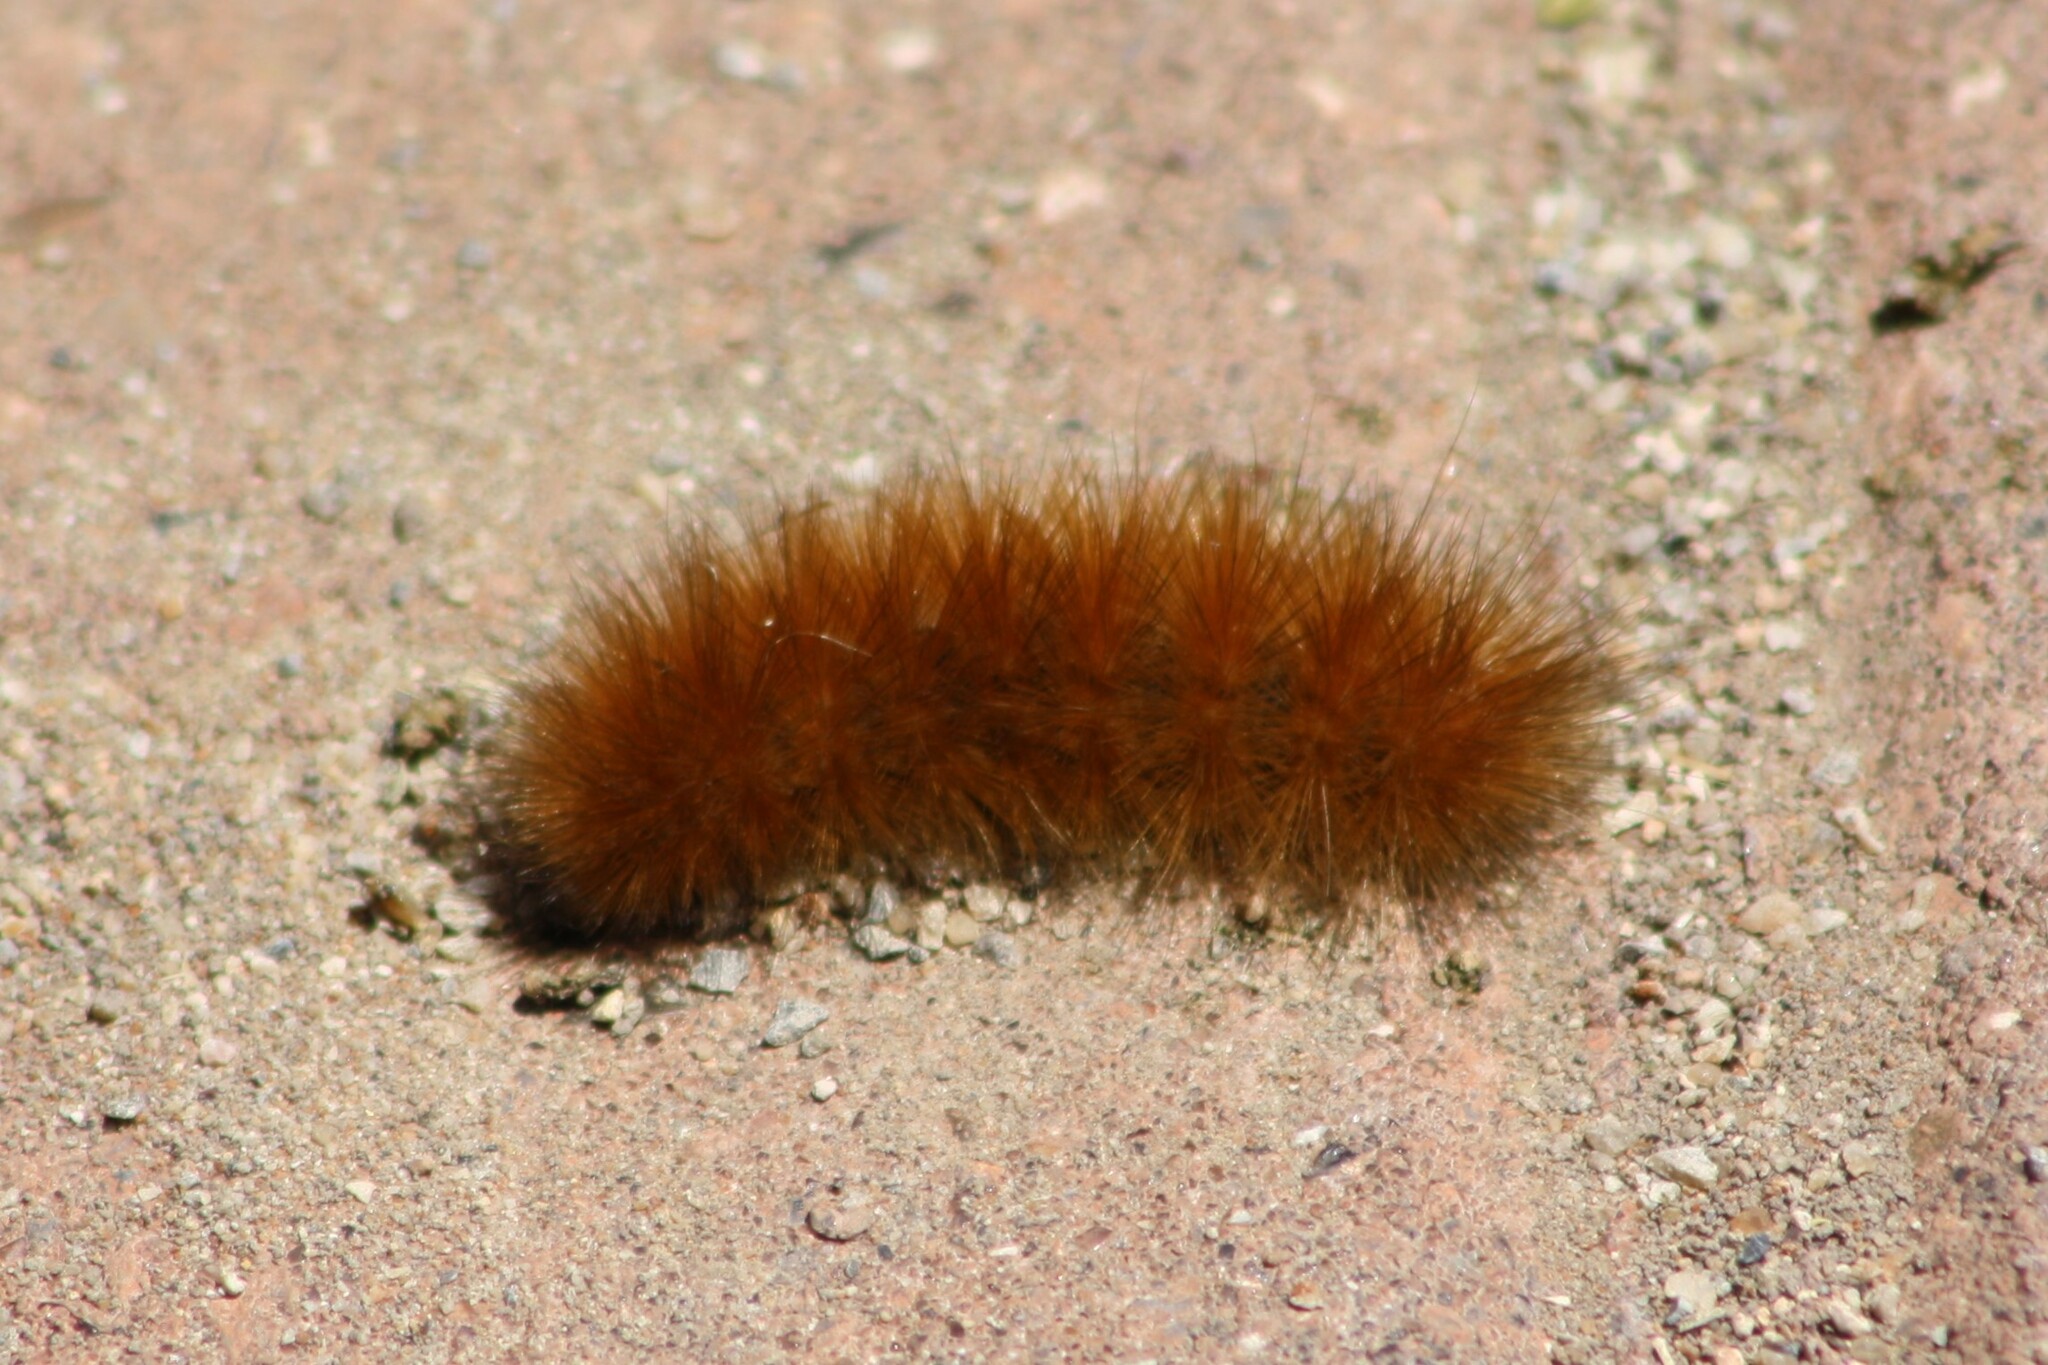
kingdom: Animalia
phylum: Arthropoda
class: Insecta
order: Lepidoptera
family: Erebidae
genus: Spilosoma
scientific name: Spilosoma virginica
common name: Virginia tiger moth
